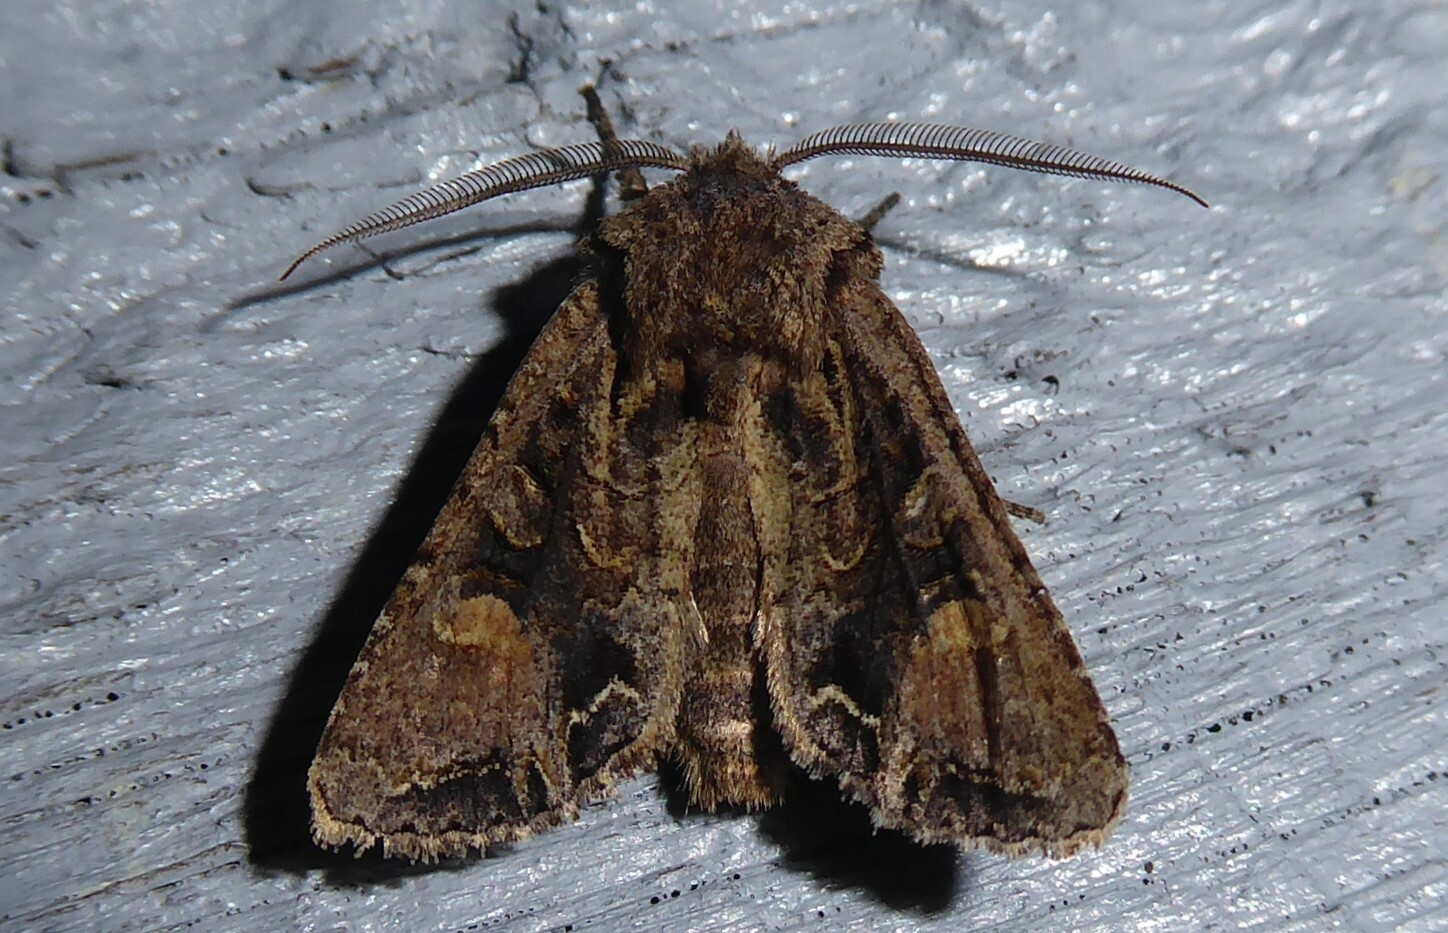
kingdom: Animalia
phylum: Arthropoda
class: Insecta
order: Lepidoptera
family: Noctuidae
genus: Ichneutica
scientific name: Ichneutica
